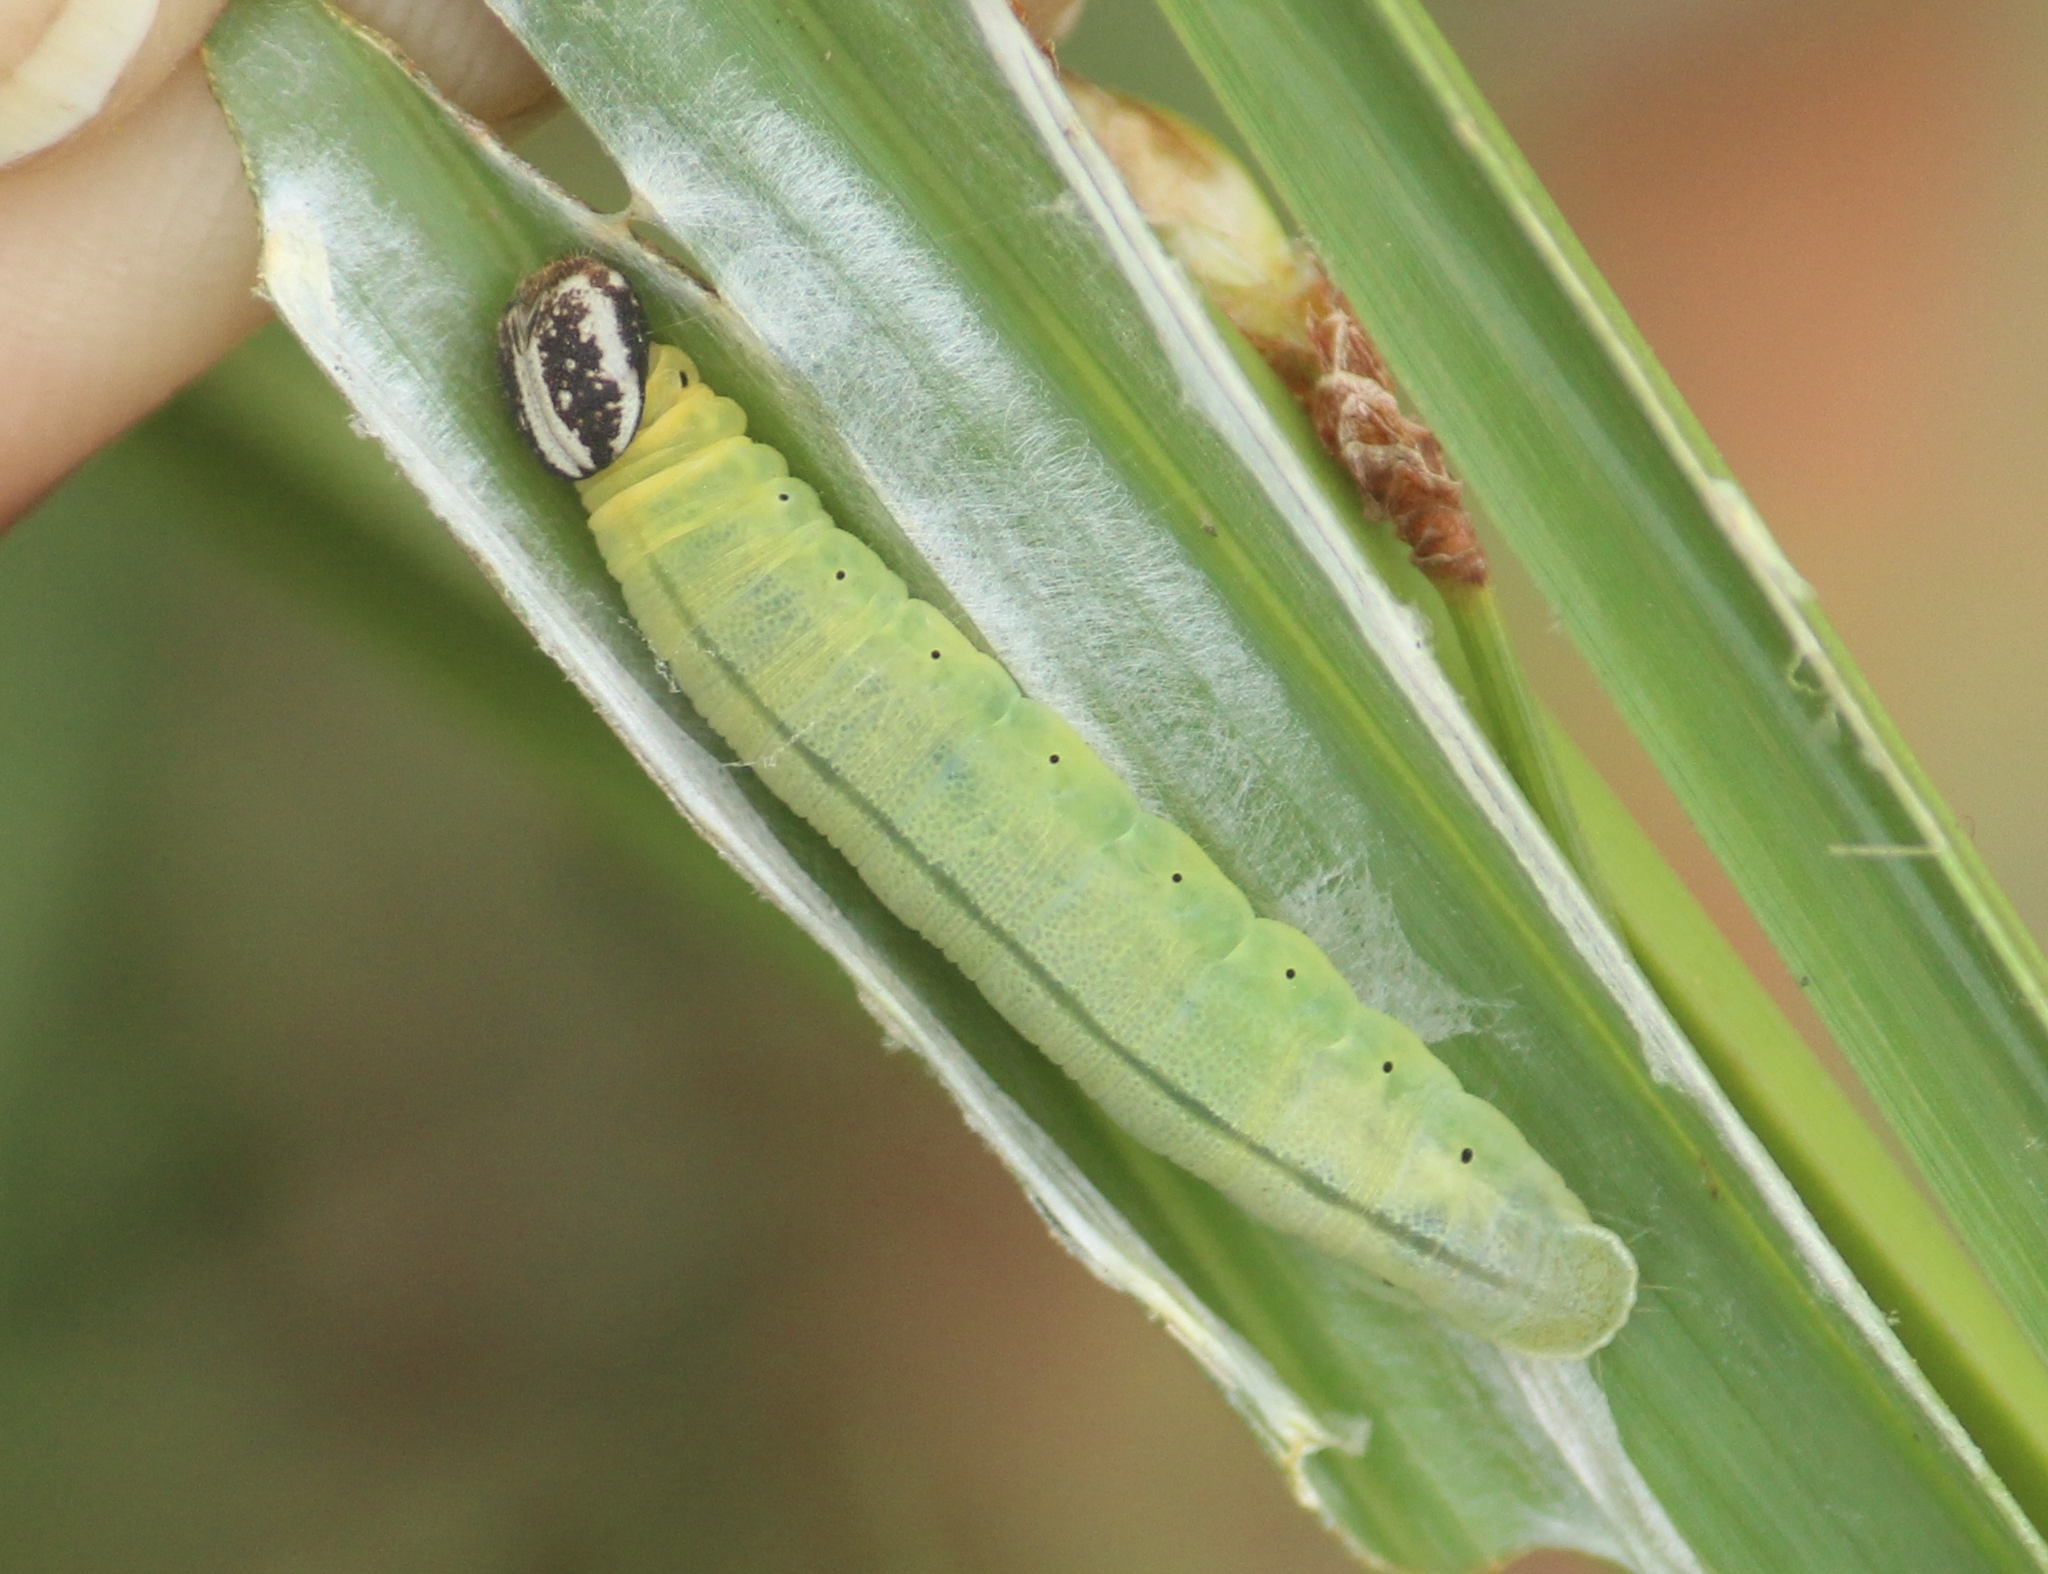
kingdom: Animalia
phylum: Arthropoda
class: Insecta
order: Lepidoptera
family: Hesperiidae
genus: Suastus
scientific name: Suastus gremius
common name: Indian palm bob
